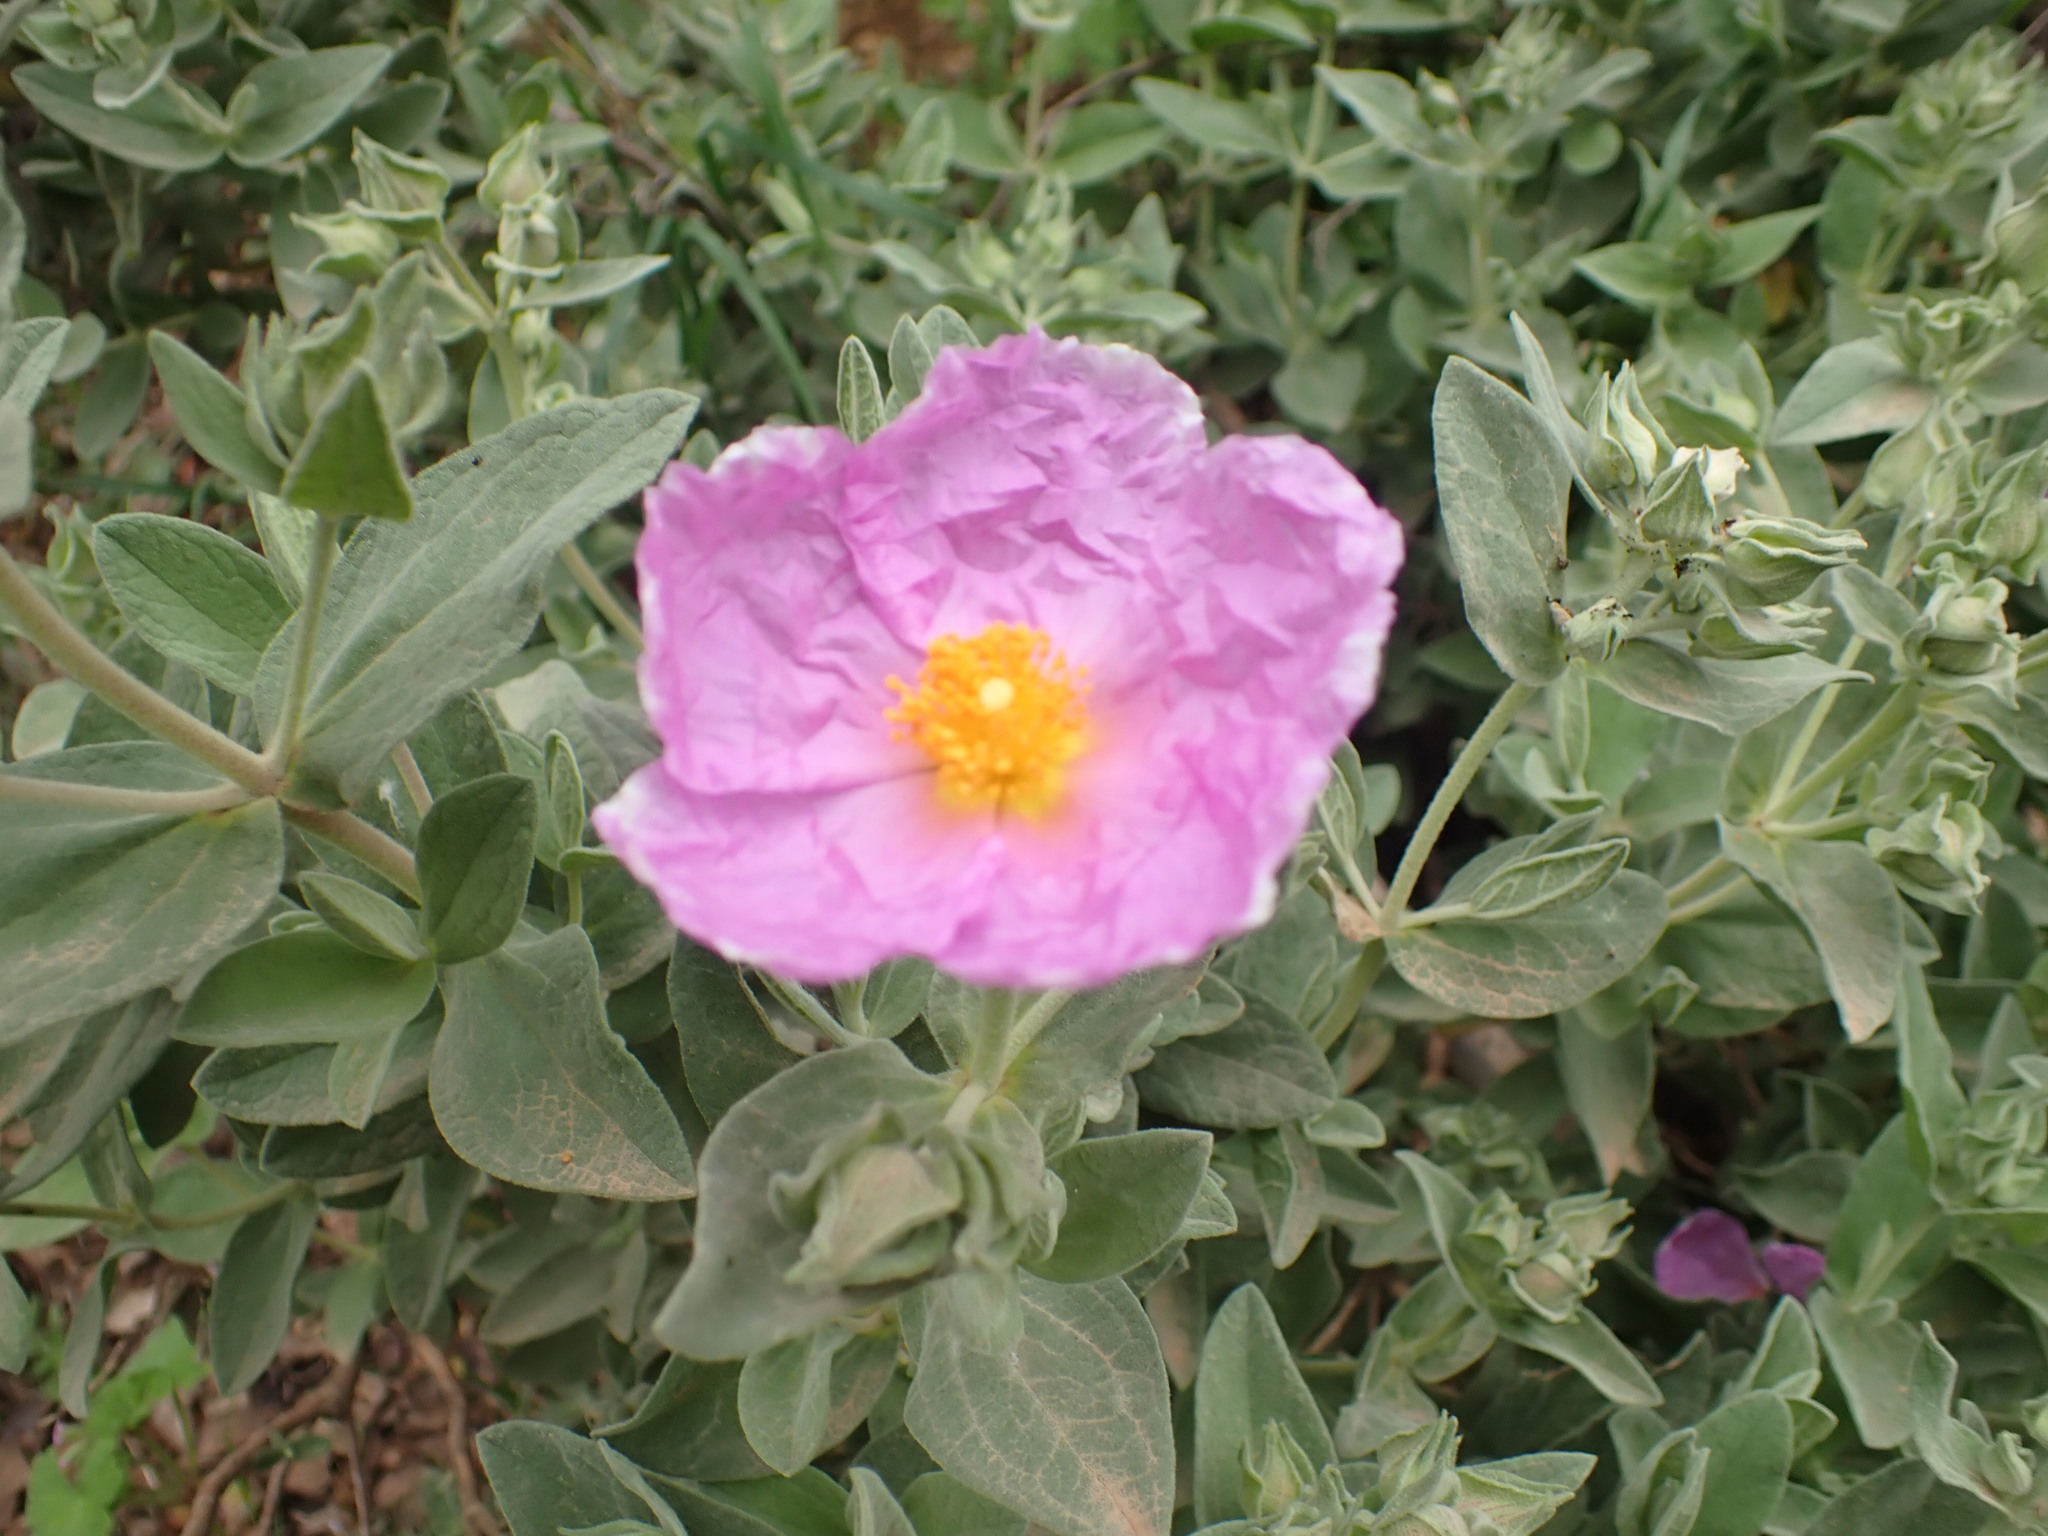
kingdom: Plantae
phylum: Tracheophyta
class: Magnoliopsida
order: Malvales
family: Cistaceae
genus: Cistus
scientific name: Cistus albidus
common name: White-leaf rock-rose
